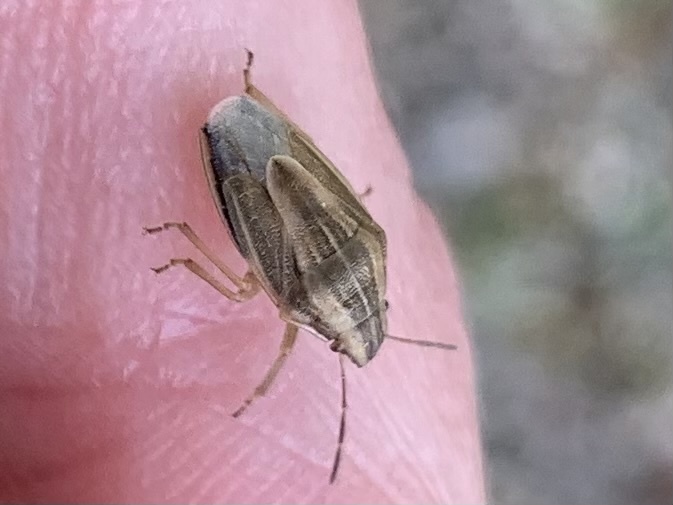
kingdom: Animalia
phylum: Arthropoda
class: Insecta
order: Hemiptera
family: Pentatomidae
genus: Aelia
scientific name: Aelia acuminata
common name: Bishop's mitre
